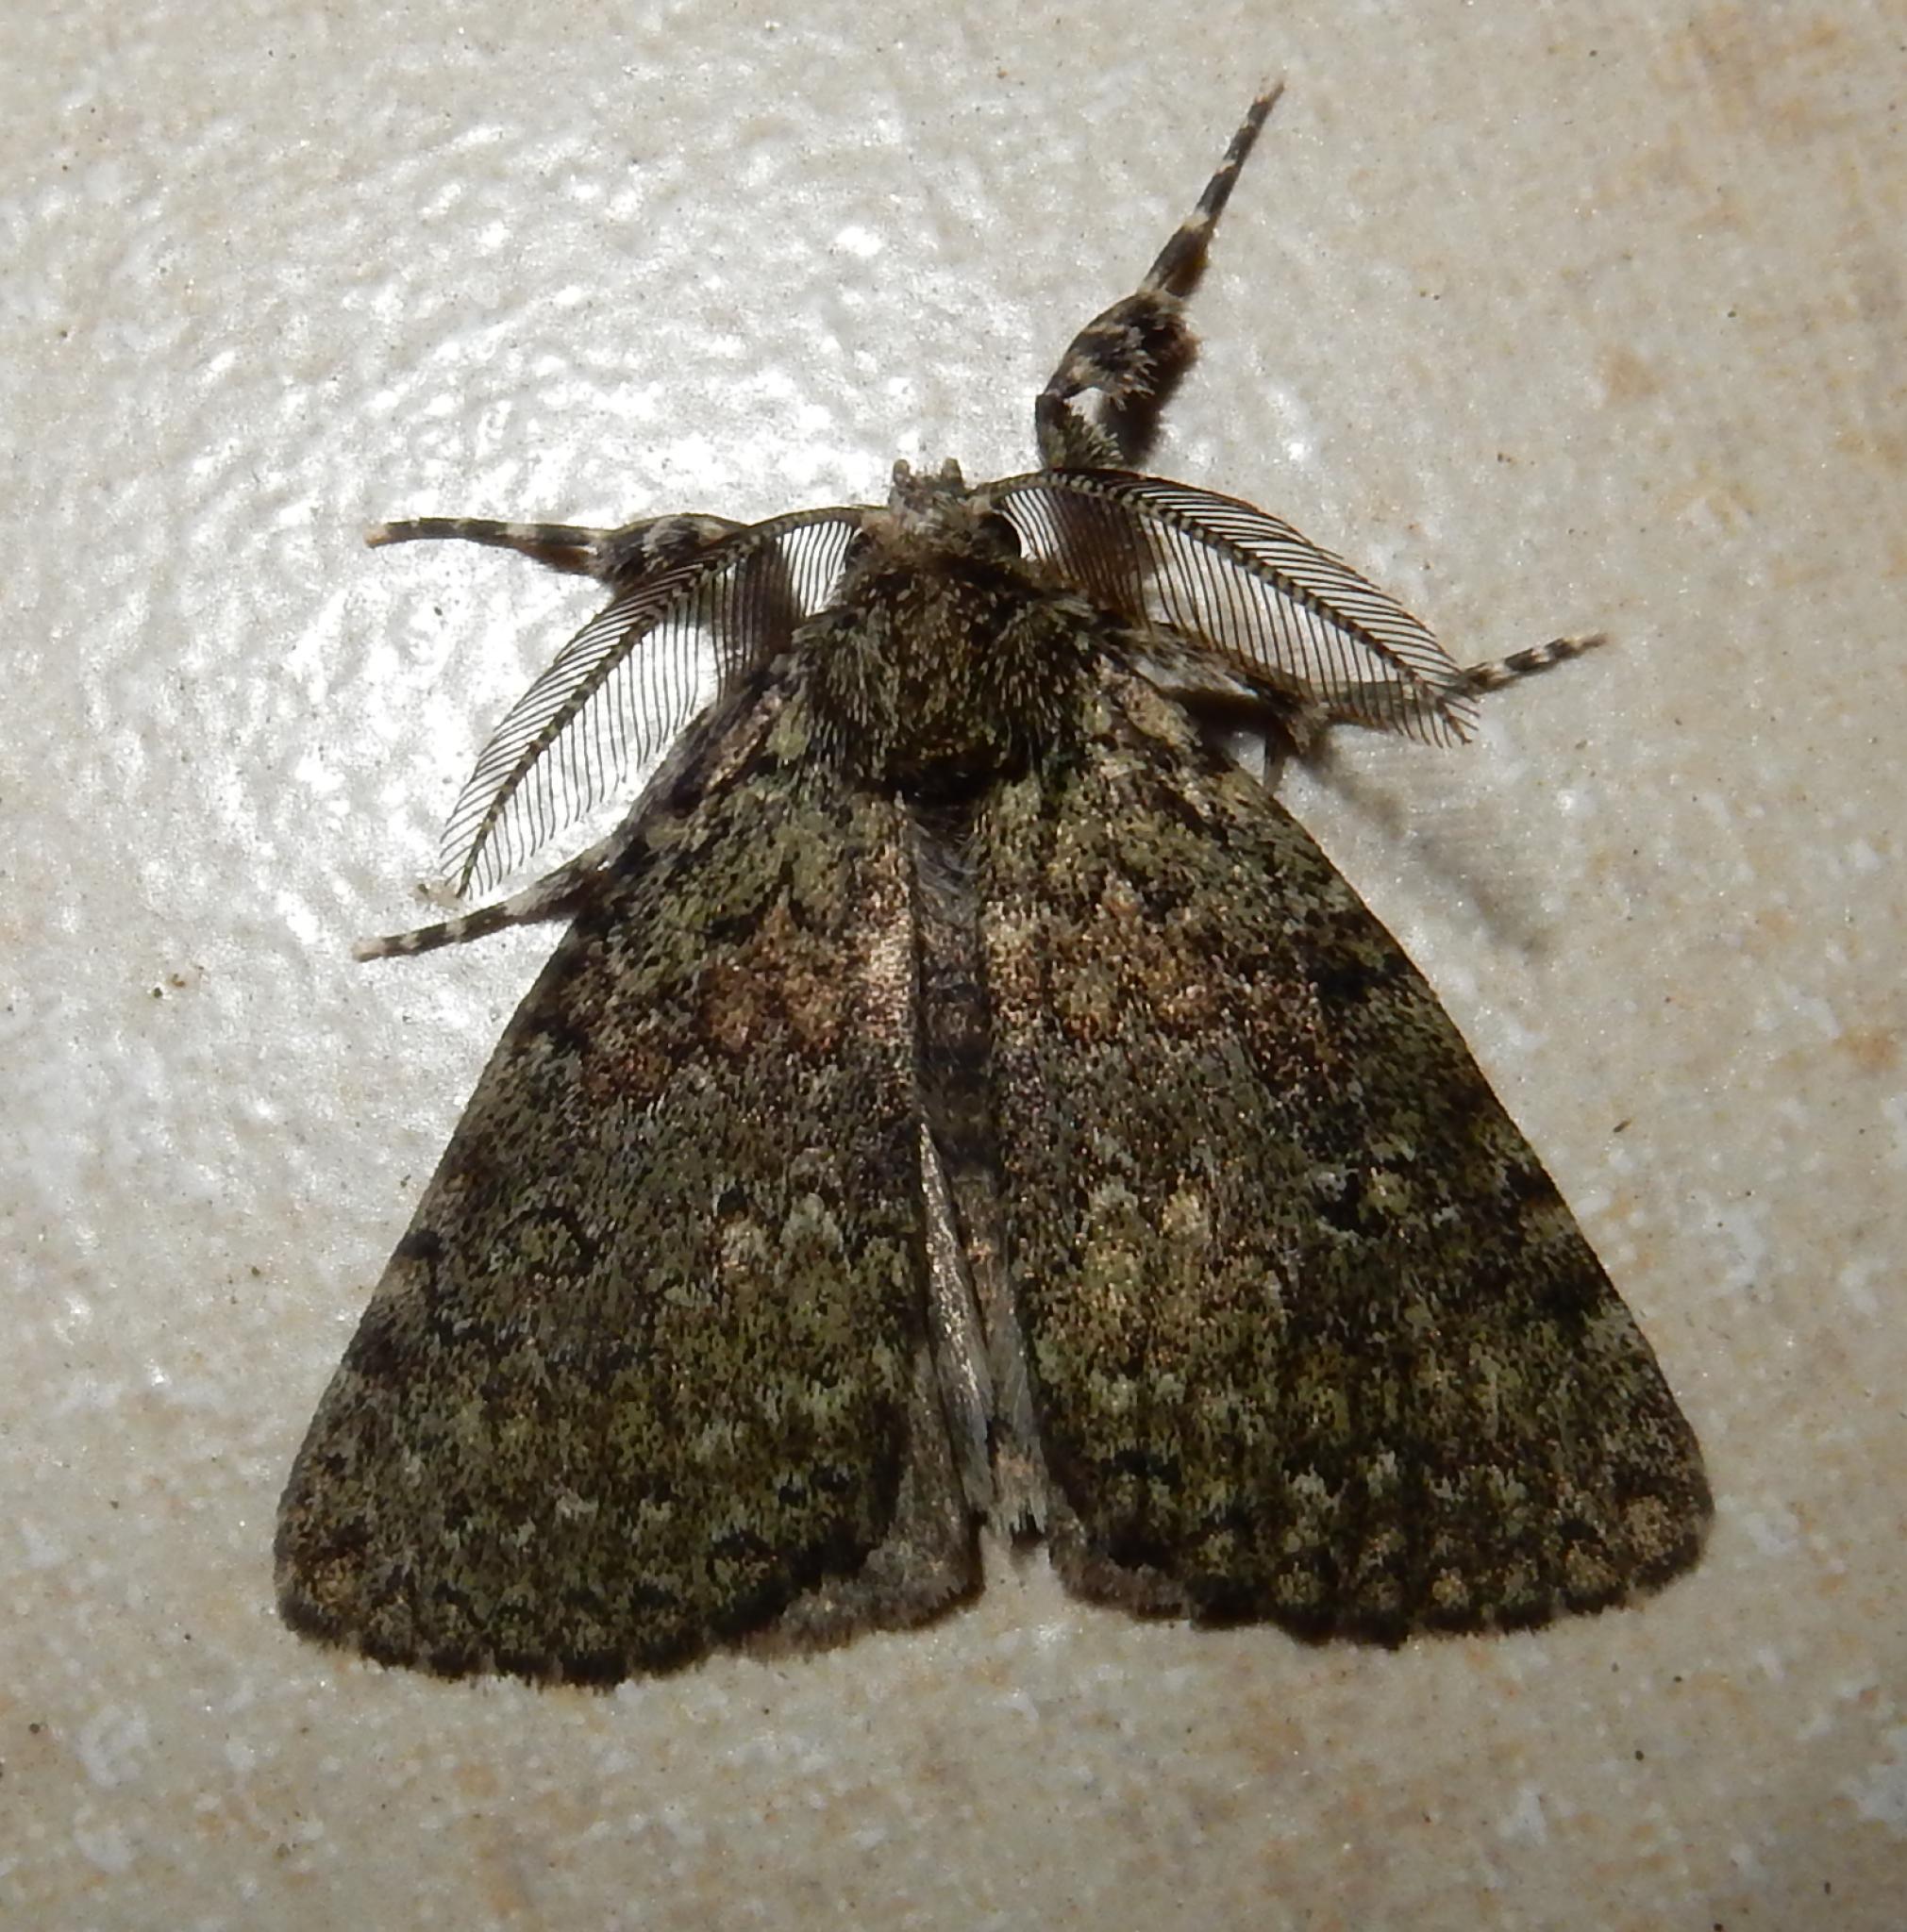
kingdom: Animalia
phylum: Arthropoda
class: Insecta
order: Lepidoptera
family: Erebidae
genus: Laelia
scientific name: Laelia fusca
